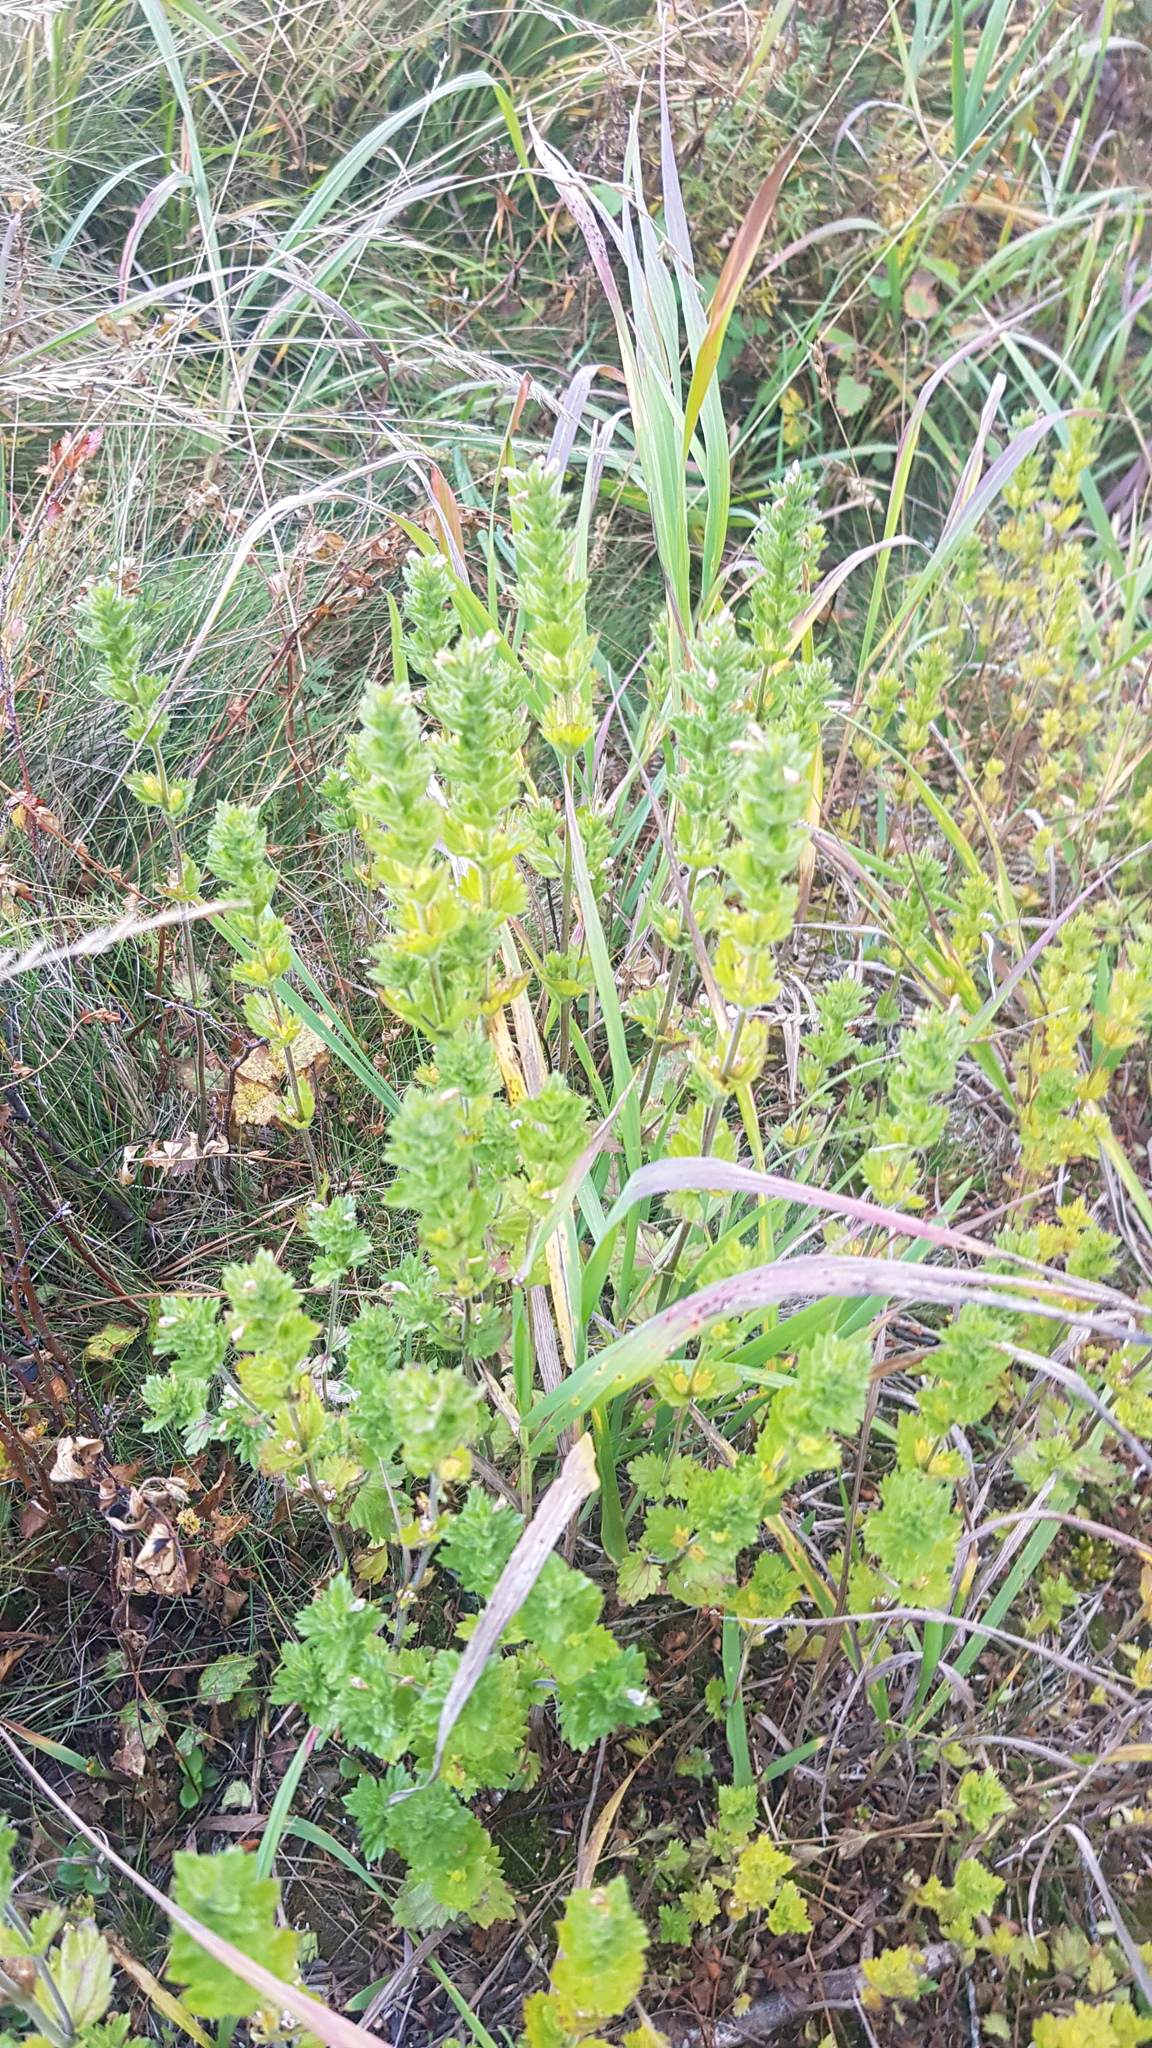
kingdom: Plantae
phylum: Tracheophyta
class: Magnoliopsida
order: Lamiales
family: Orobanchaceae
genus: Euphrasia
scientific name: Euphrasia pectinata
